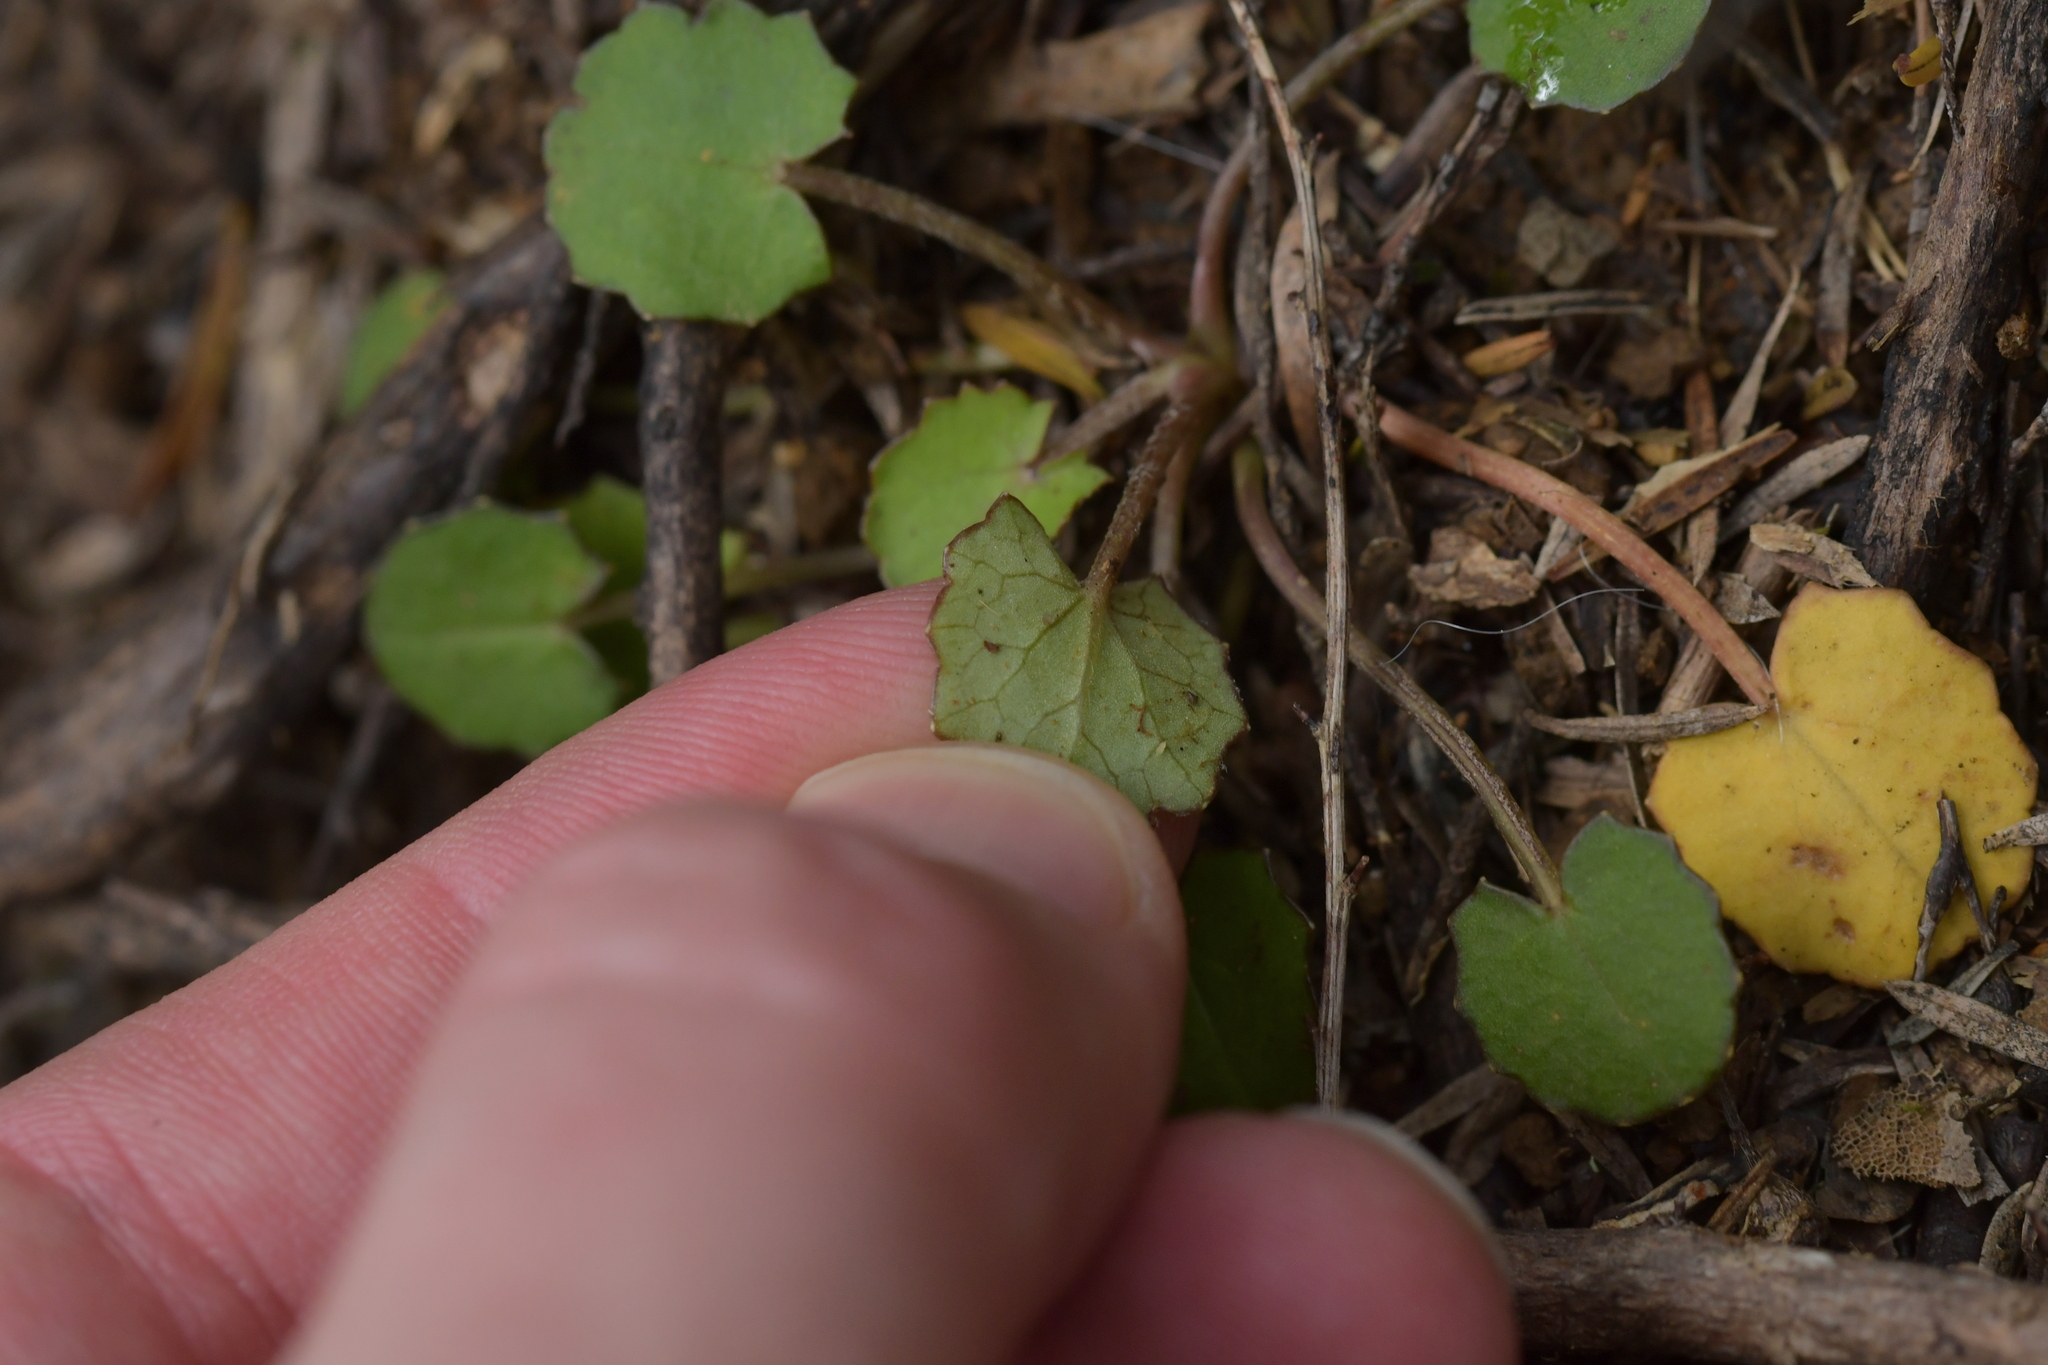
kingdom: Plantae
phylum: Tracheophyta
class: Magnoliopsida
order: Apiales
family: Apiaceae
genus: Centella
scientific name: Centella uniflora
